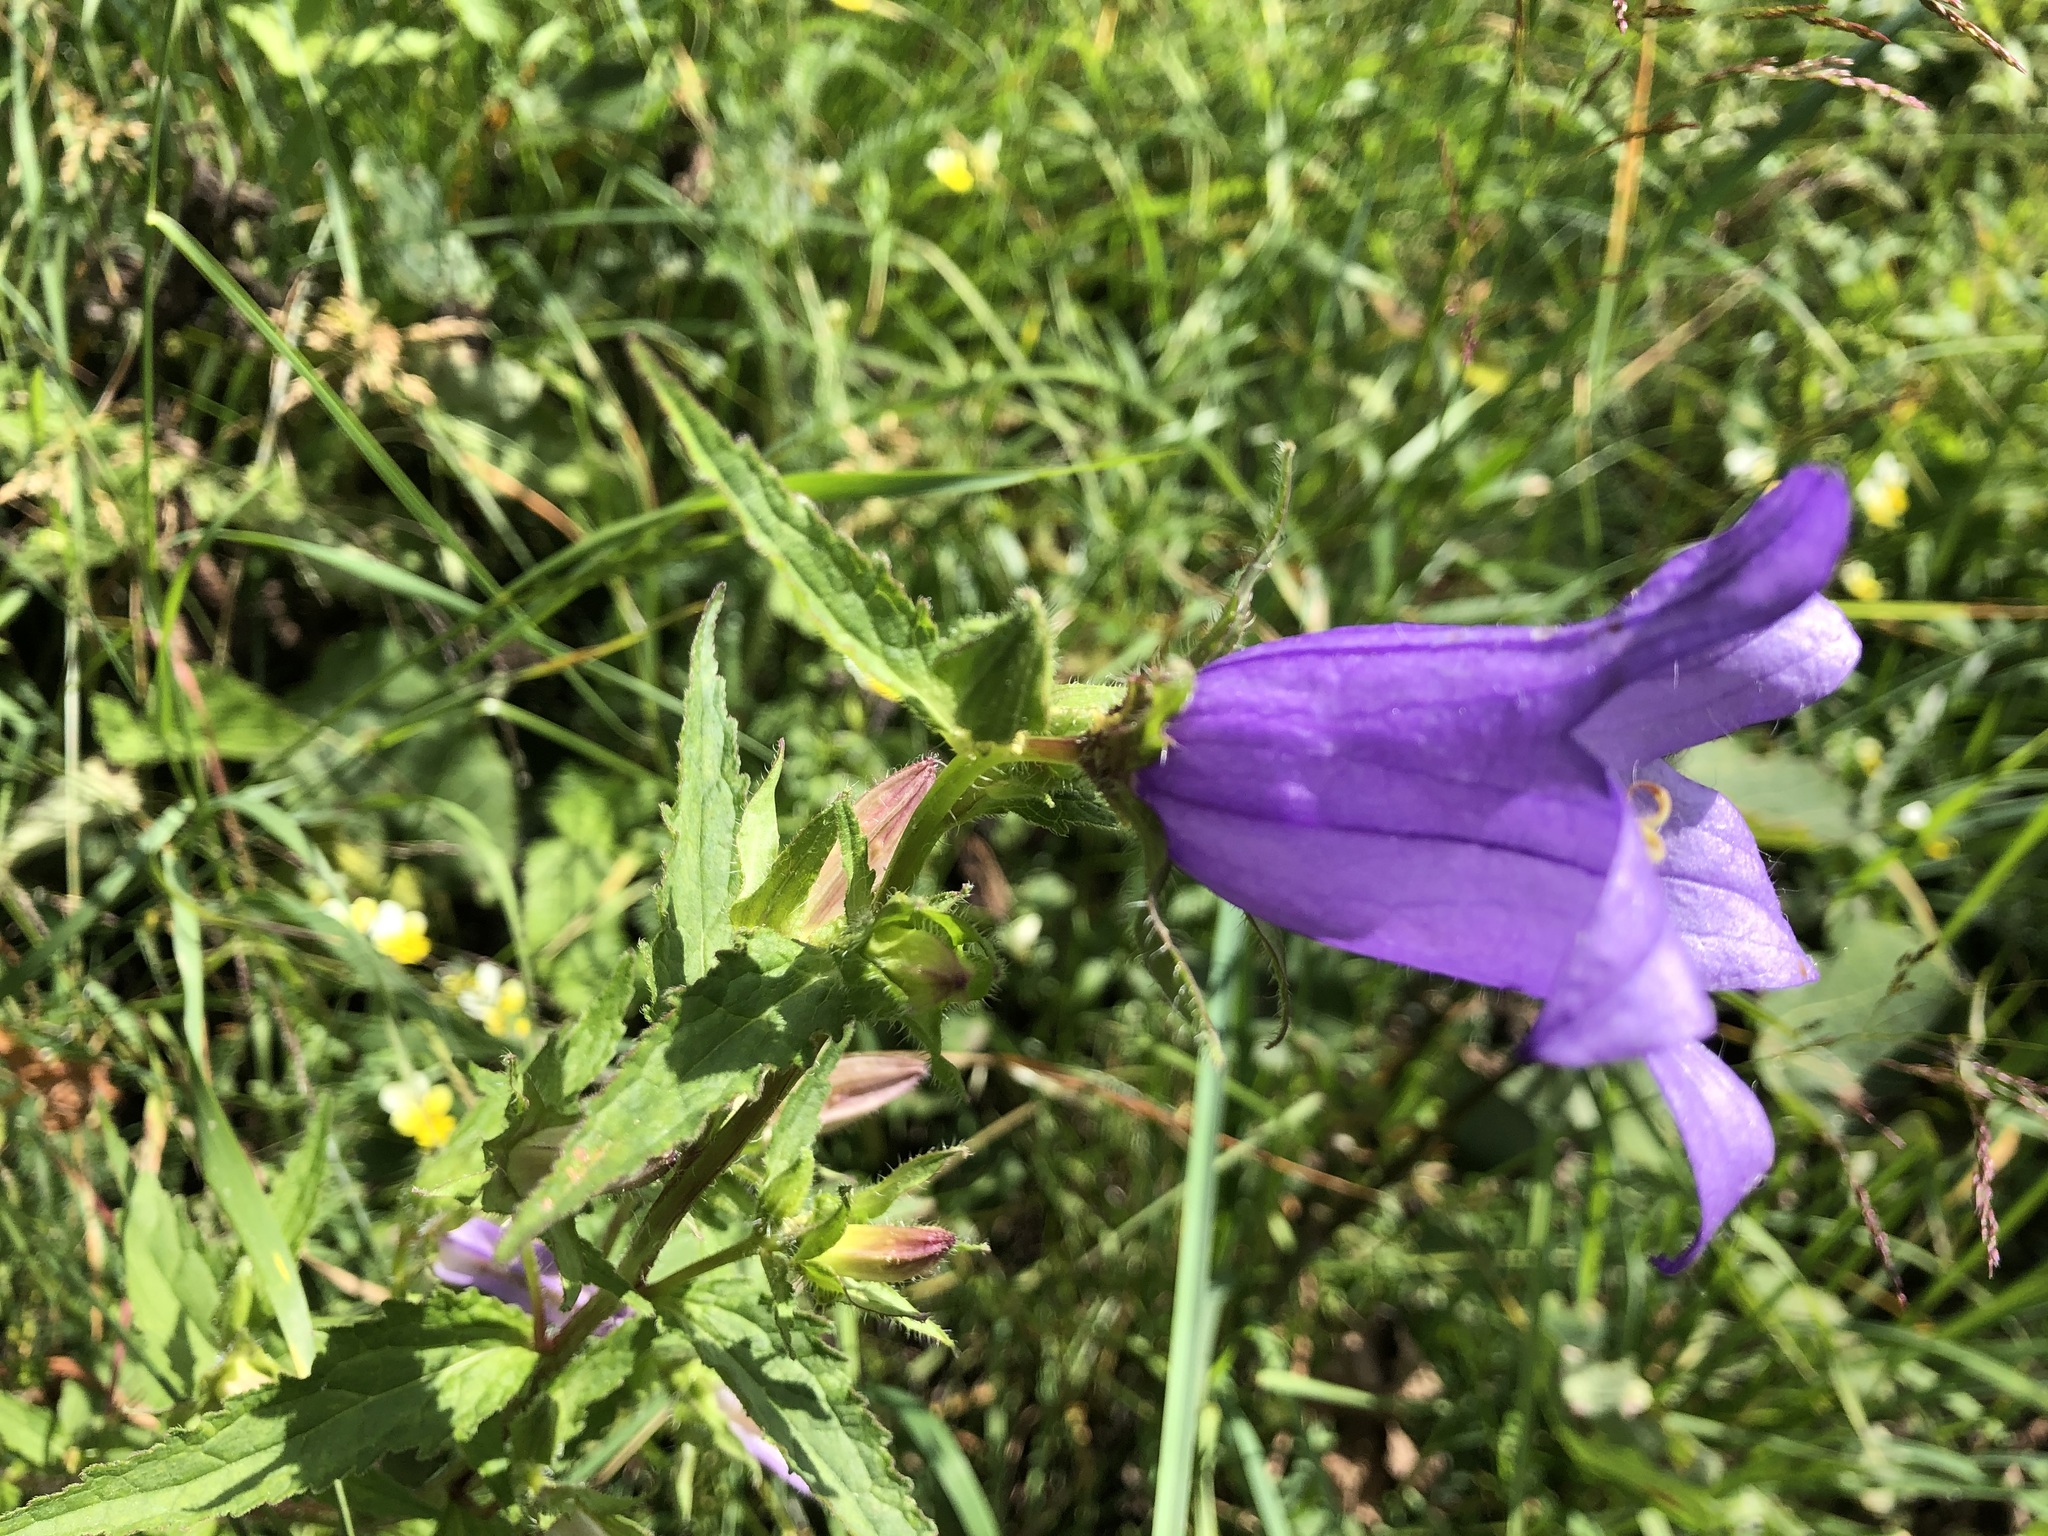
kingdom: Plantae
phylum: Tracheophyta
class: Magnoliopsida
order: Asterales
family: Campanulaceae
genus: Campanula
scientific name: Campanula trachelium
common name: Nettle-leaved bellflower
